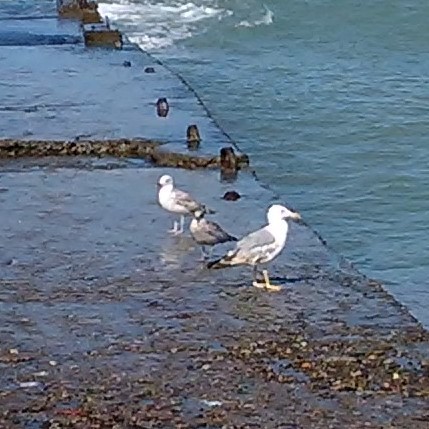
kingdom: Animalia
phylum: Chordata
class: Aves
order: Charadriiformes
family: Laridae
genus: Larus
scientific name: Larus michahellis
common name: Yellow-legged gull
